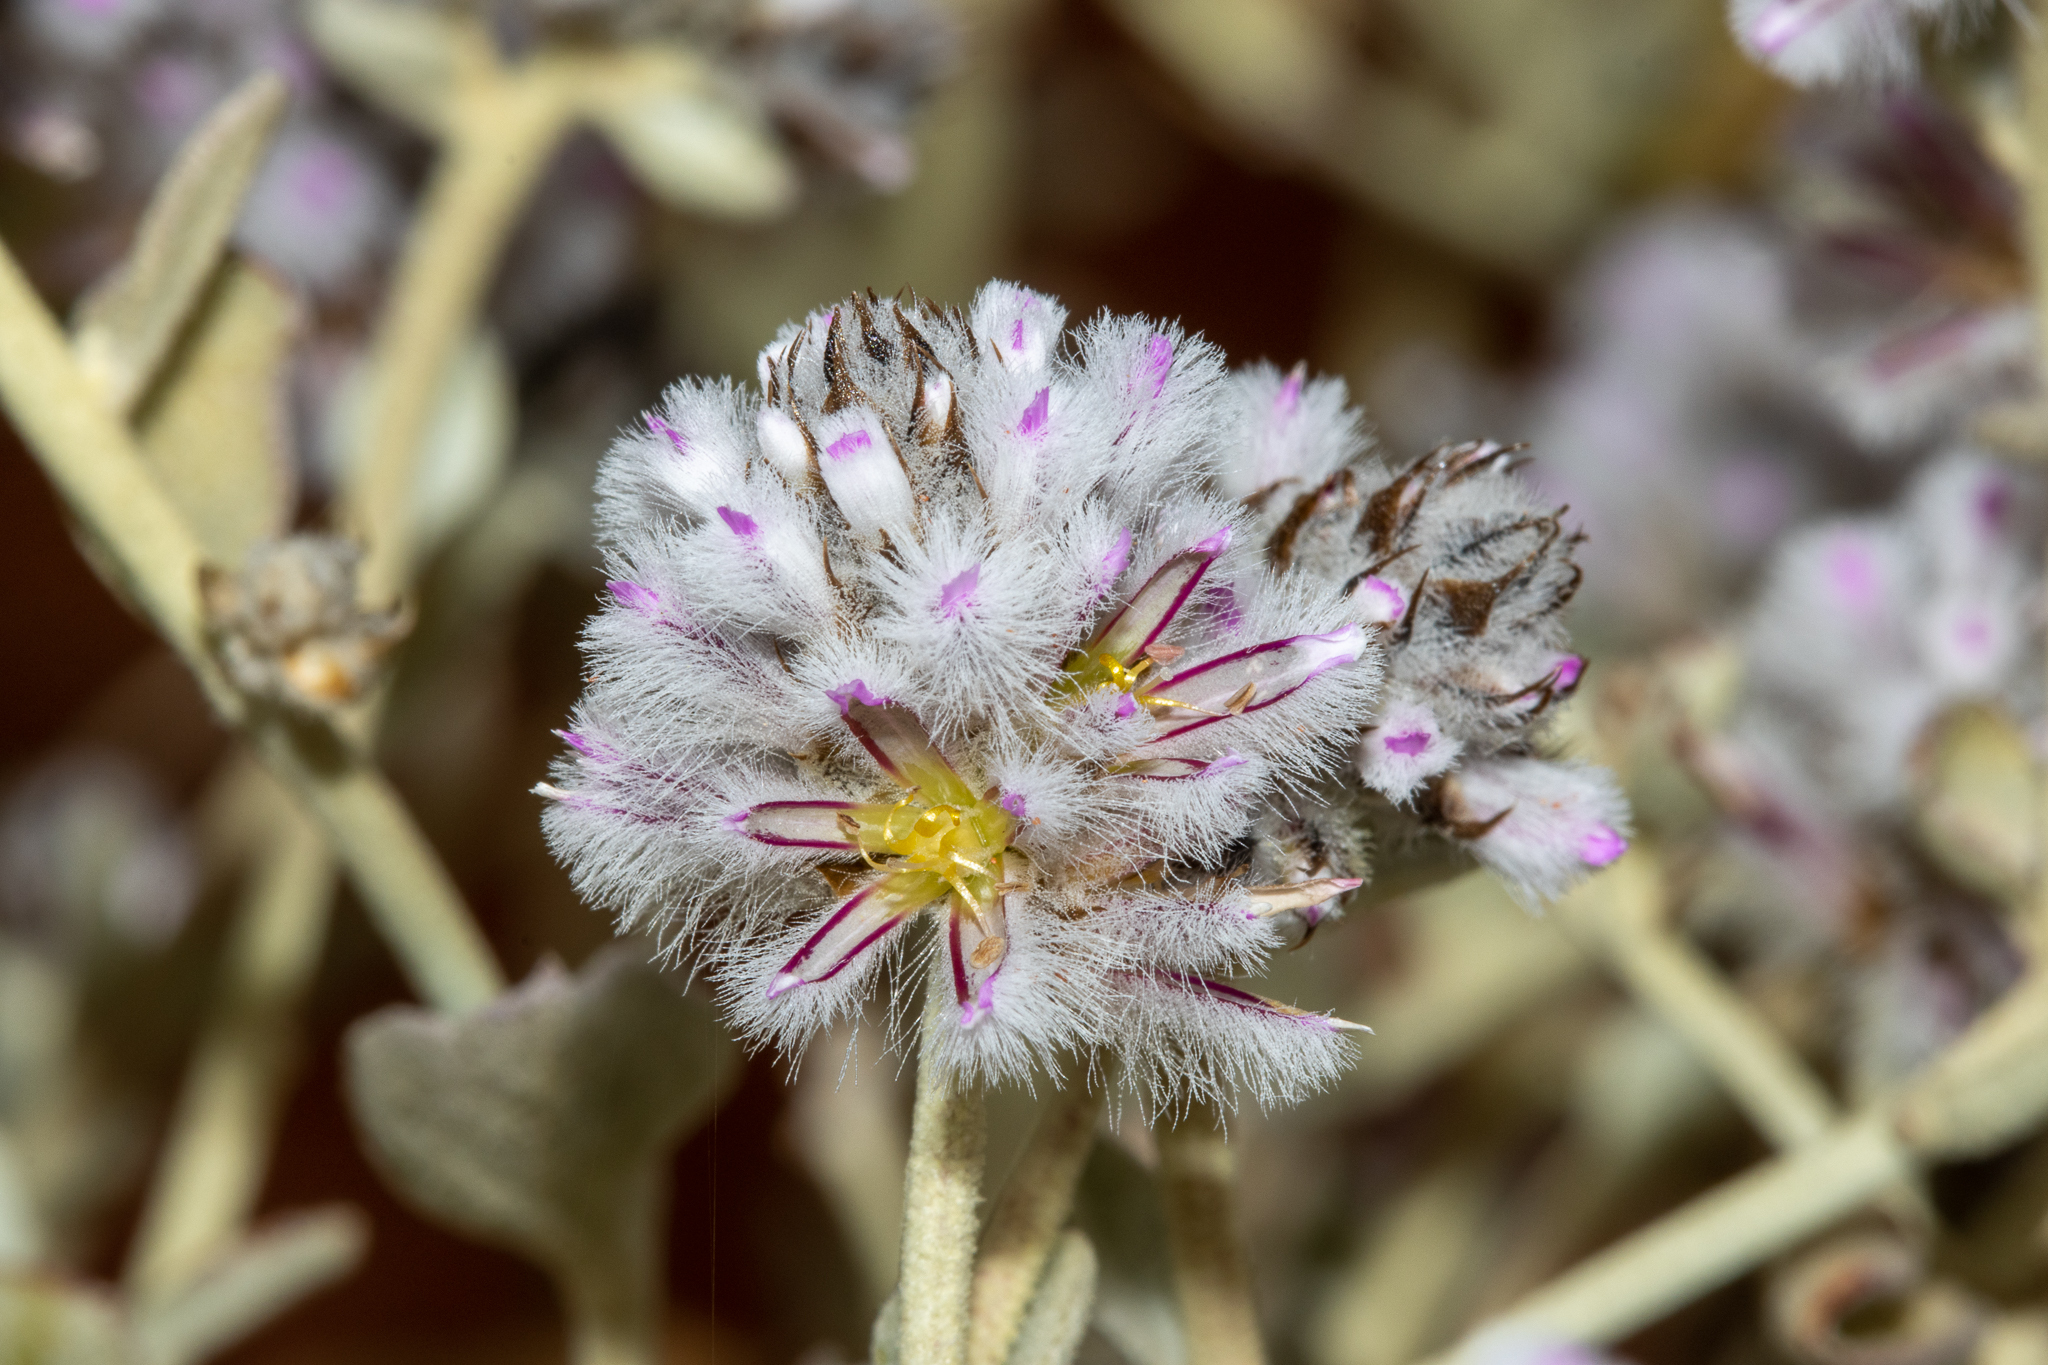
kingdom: Plantae
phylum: Tracheophyta
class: Magnoliopsida
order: Caryophyllales
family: Amaranthaceae
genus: Ptilotus
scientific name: Ptilotus obovatus
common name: Cottonbush
